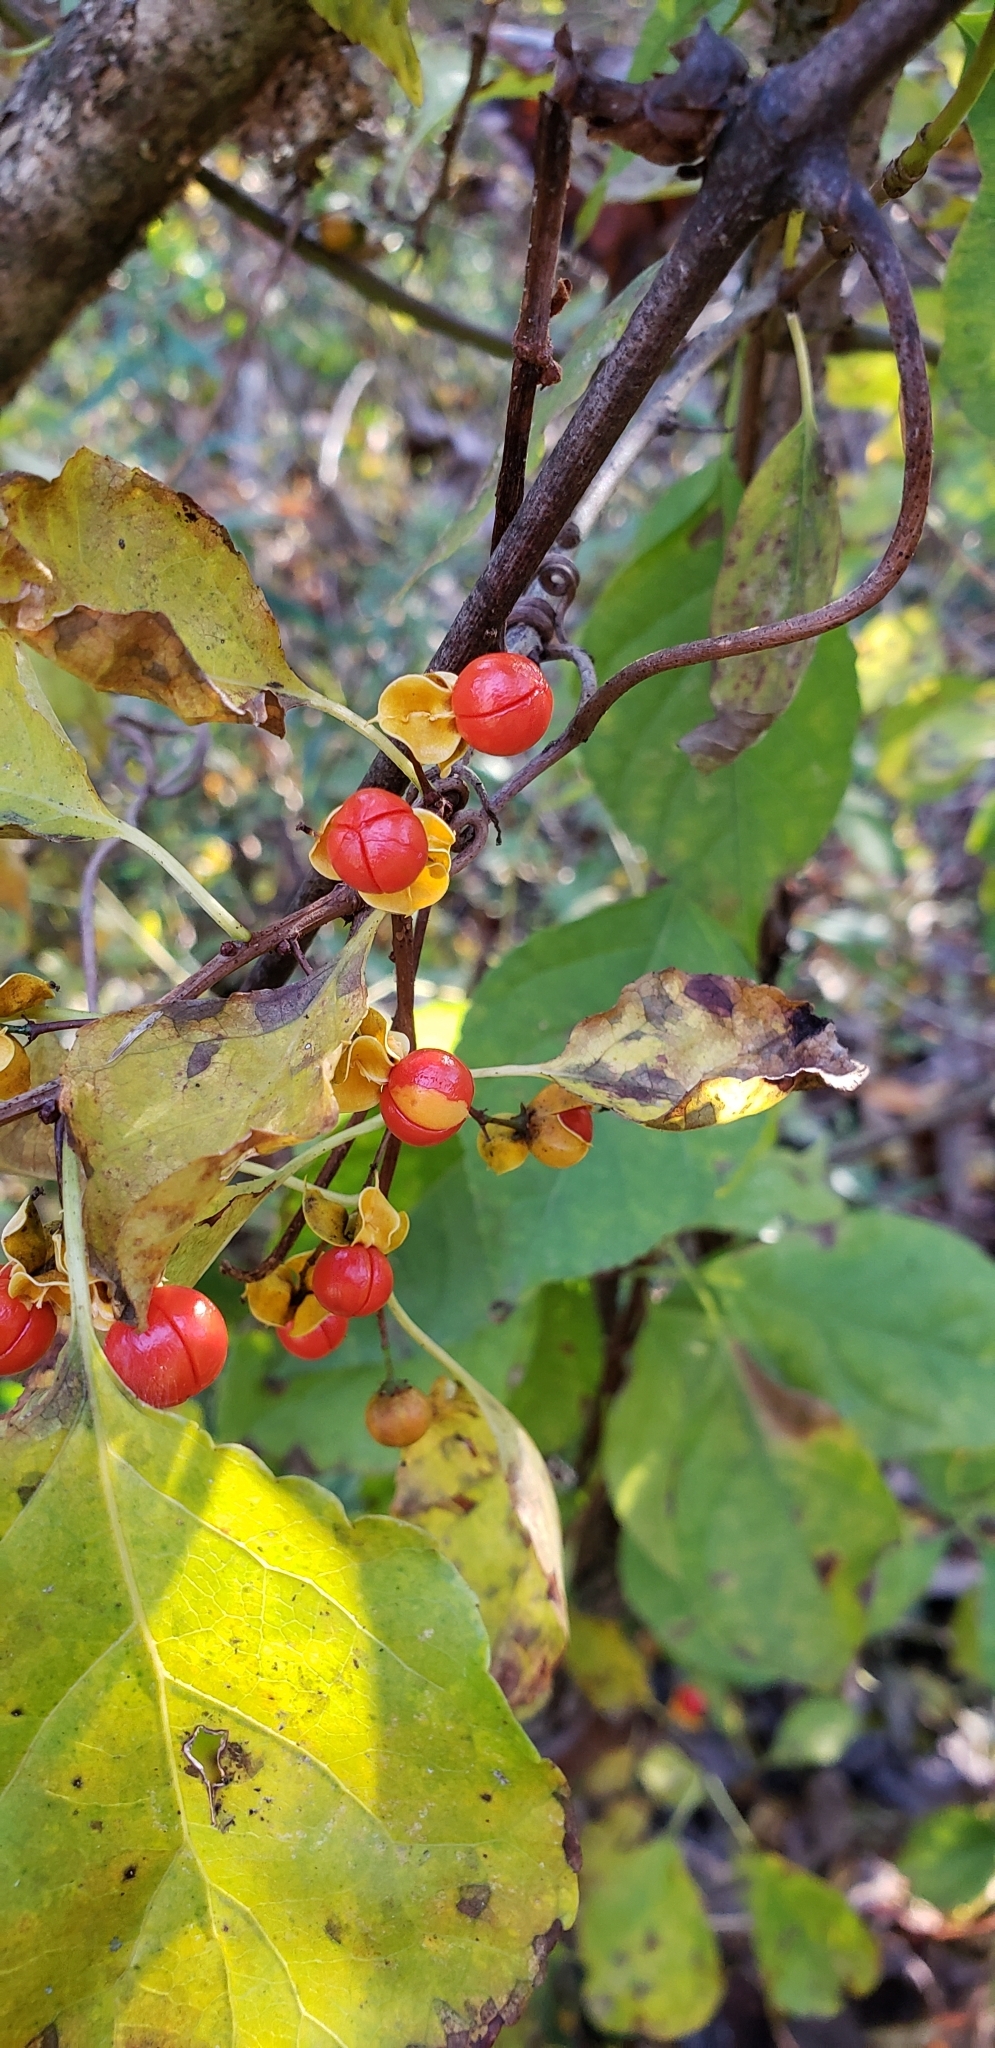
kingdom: Plantae
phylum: Tracheophyta
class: Magnoliopsida
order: Celastrales
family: Celastraceae
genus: Celastrus
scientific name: Celastrus orbiculatus
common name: Oriental bittersweet
